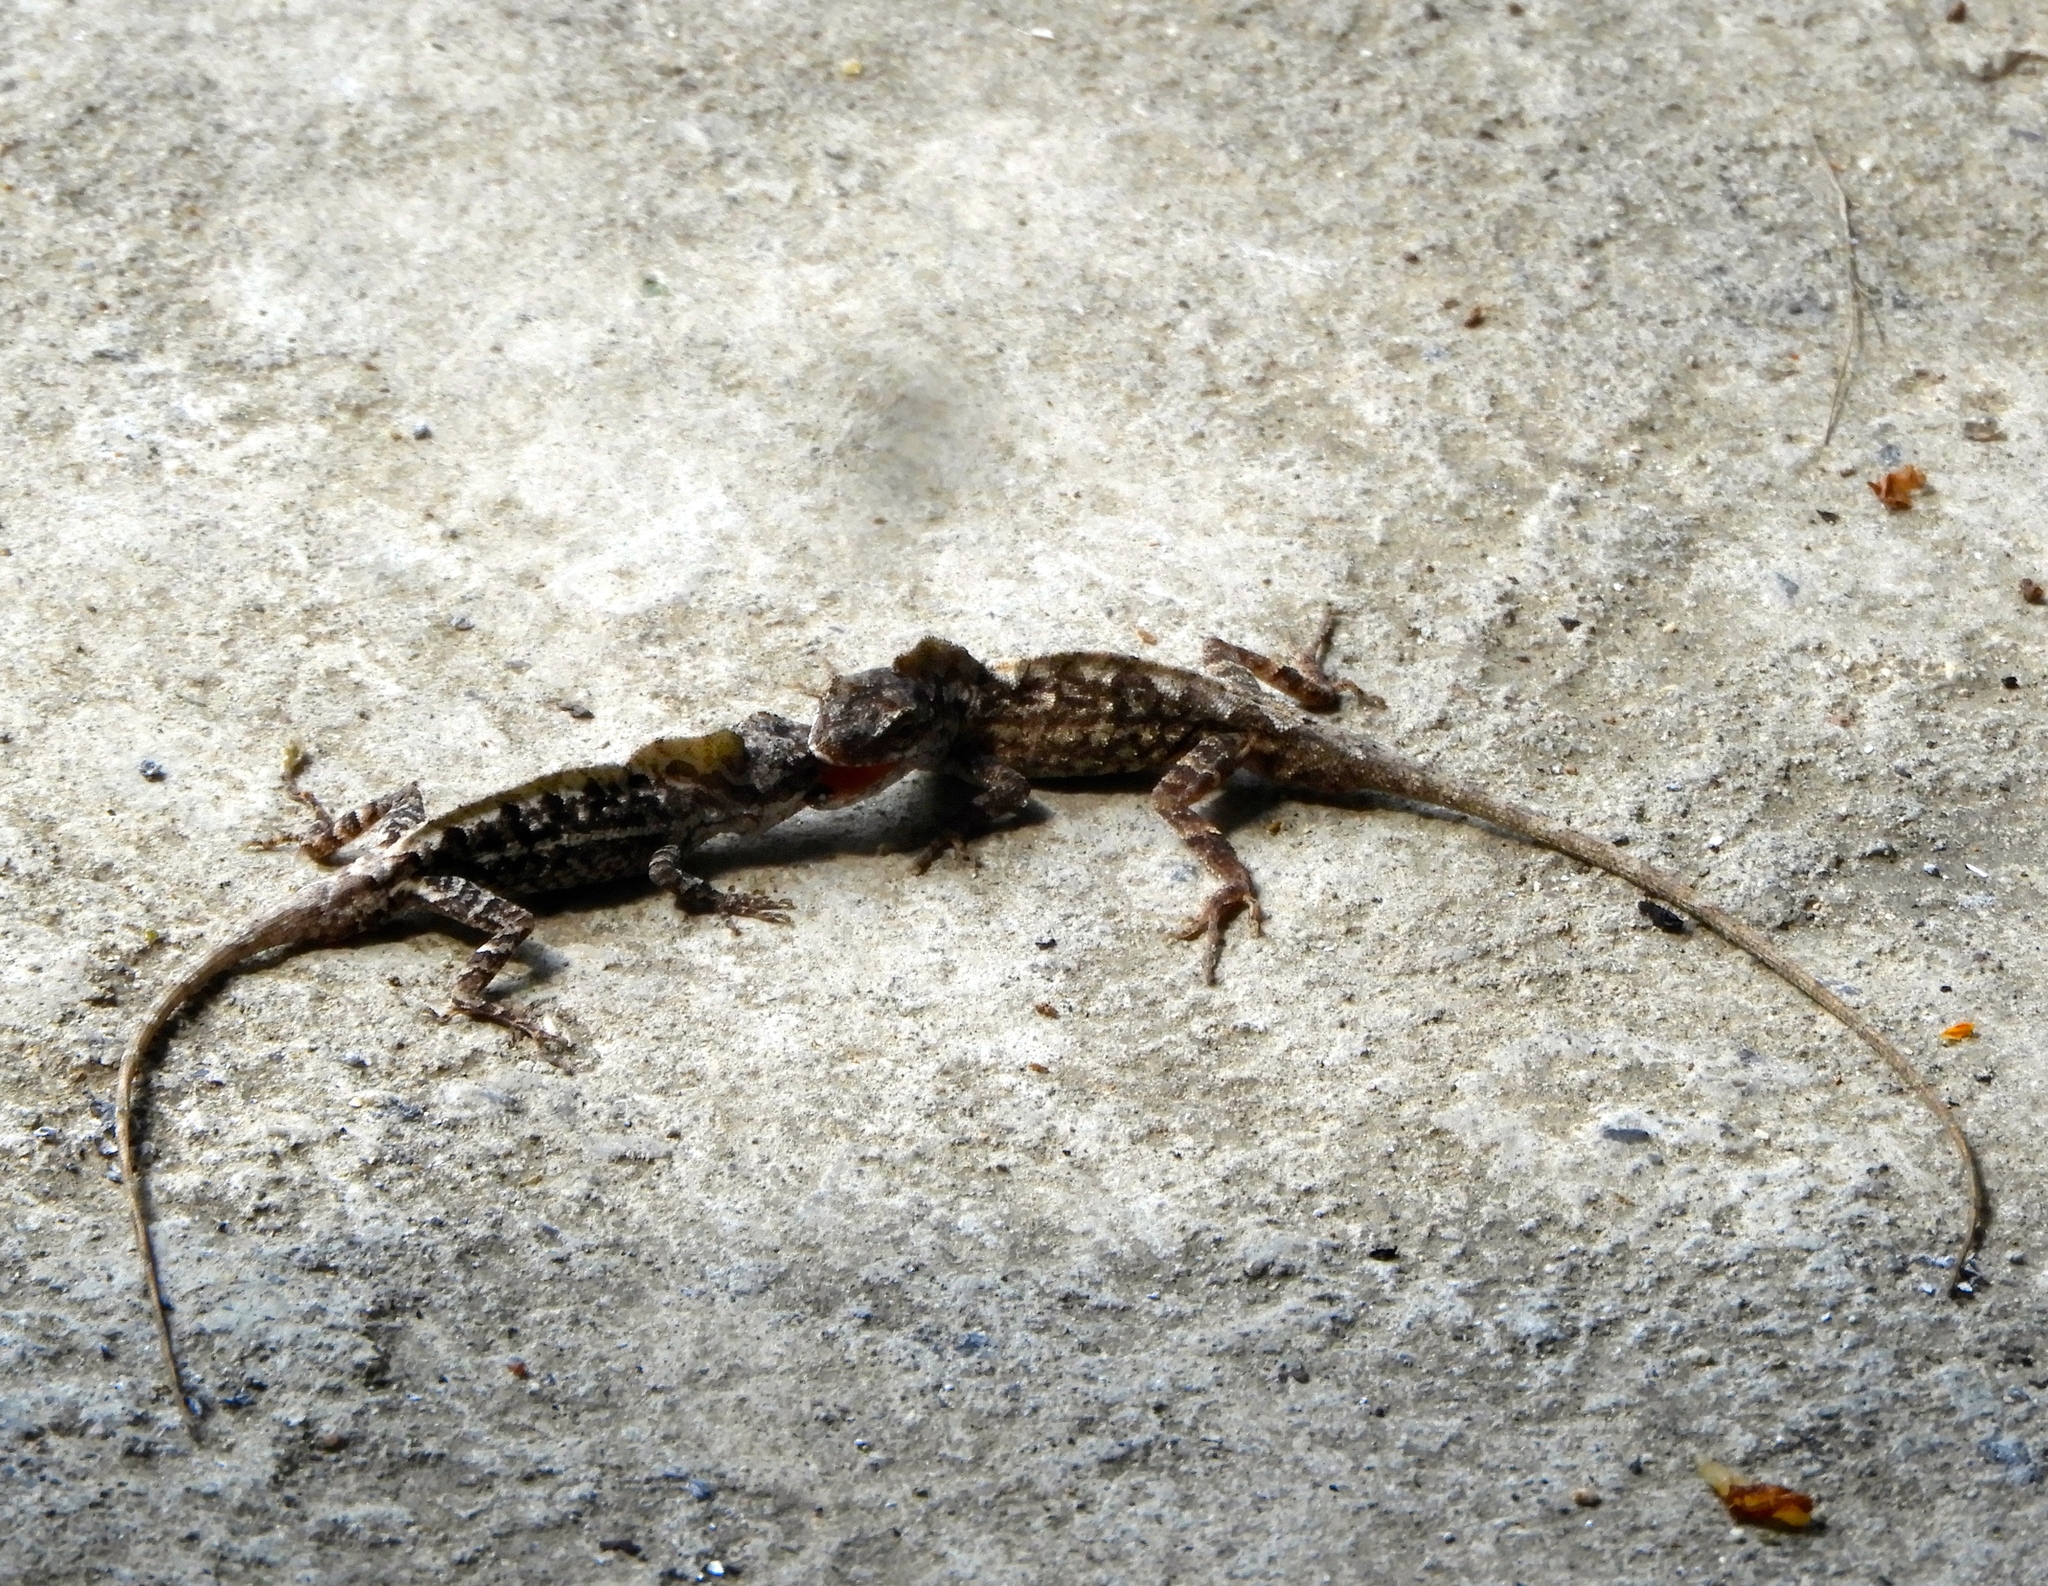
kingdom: Animalia
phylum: Chordata
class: Squamata
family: Dactyloidae
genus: Anolis
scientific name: Anolis nebulosus
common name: Clouded anole
